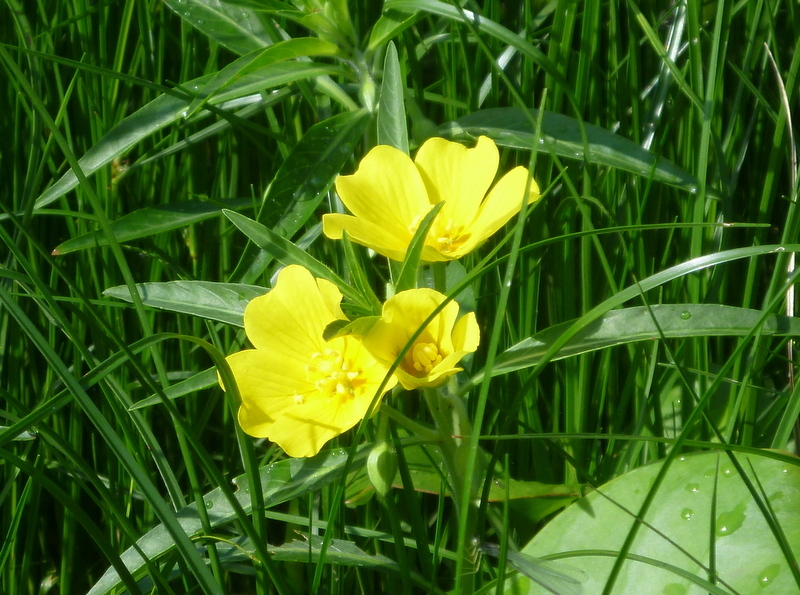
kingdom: Plantae
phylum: Tracheophyta
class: Magnoliopsida
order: Myrtales
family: Onagraceae
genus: Ludwigia
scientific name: Ludwigia peploides
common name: Floating primrose-willow
